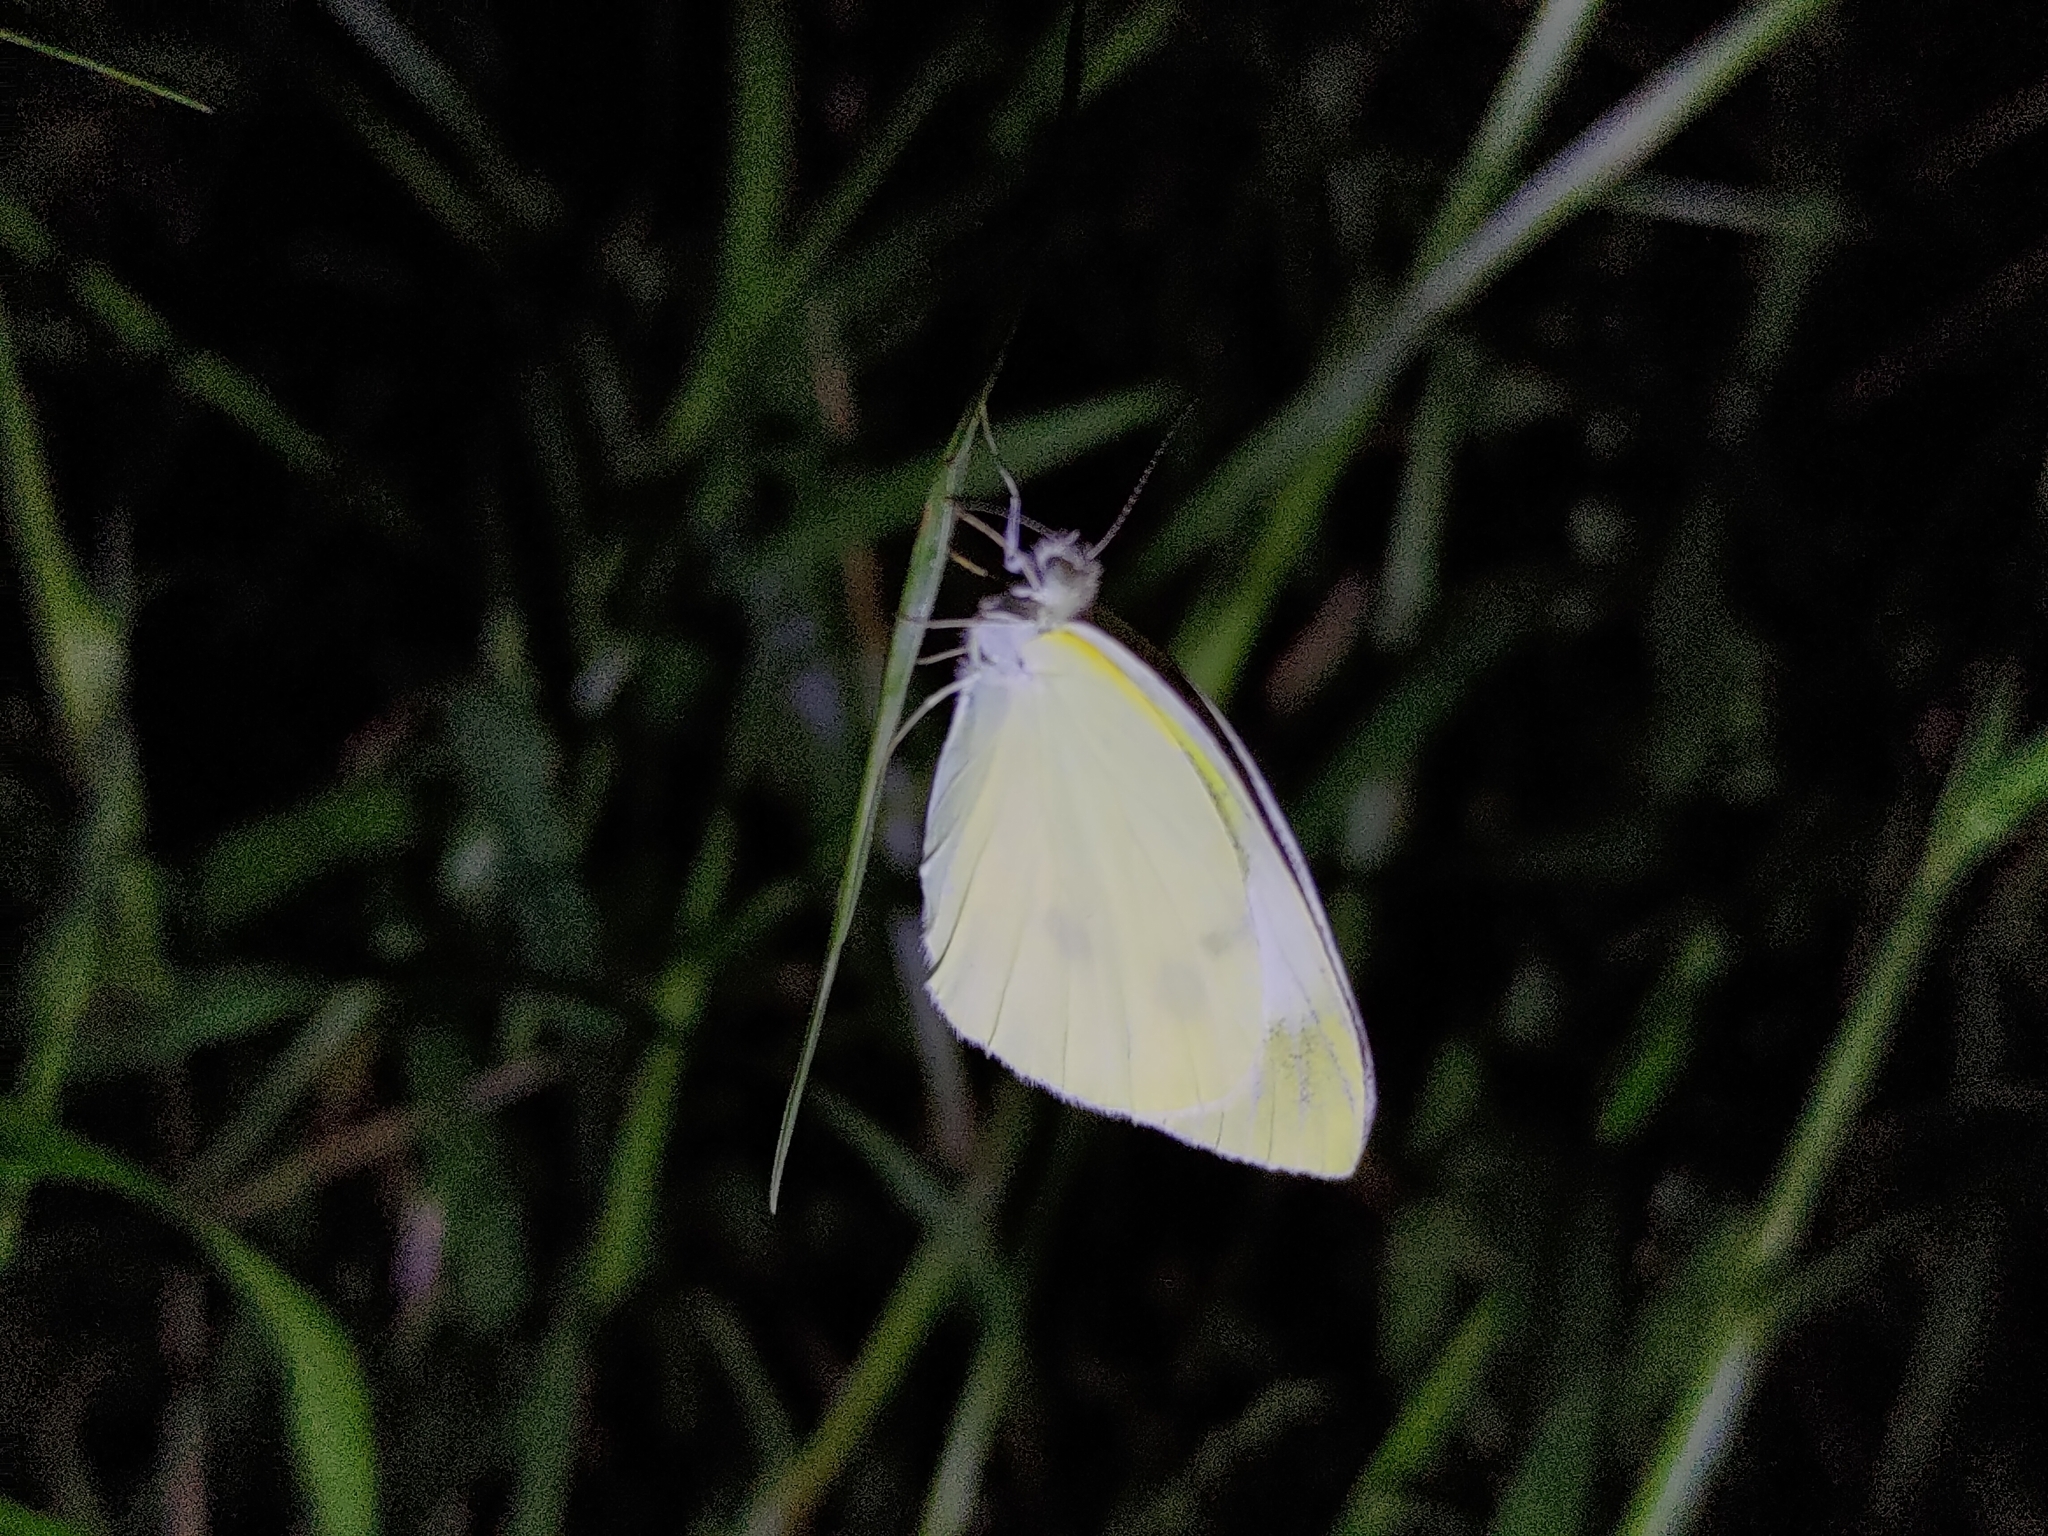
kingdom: Animalia
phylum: Arthropoda
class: Insecta
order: Lepidoptera
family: Pieridae
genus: Pieris
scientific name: Pieris rapae
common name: Small white
